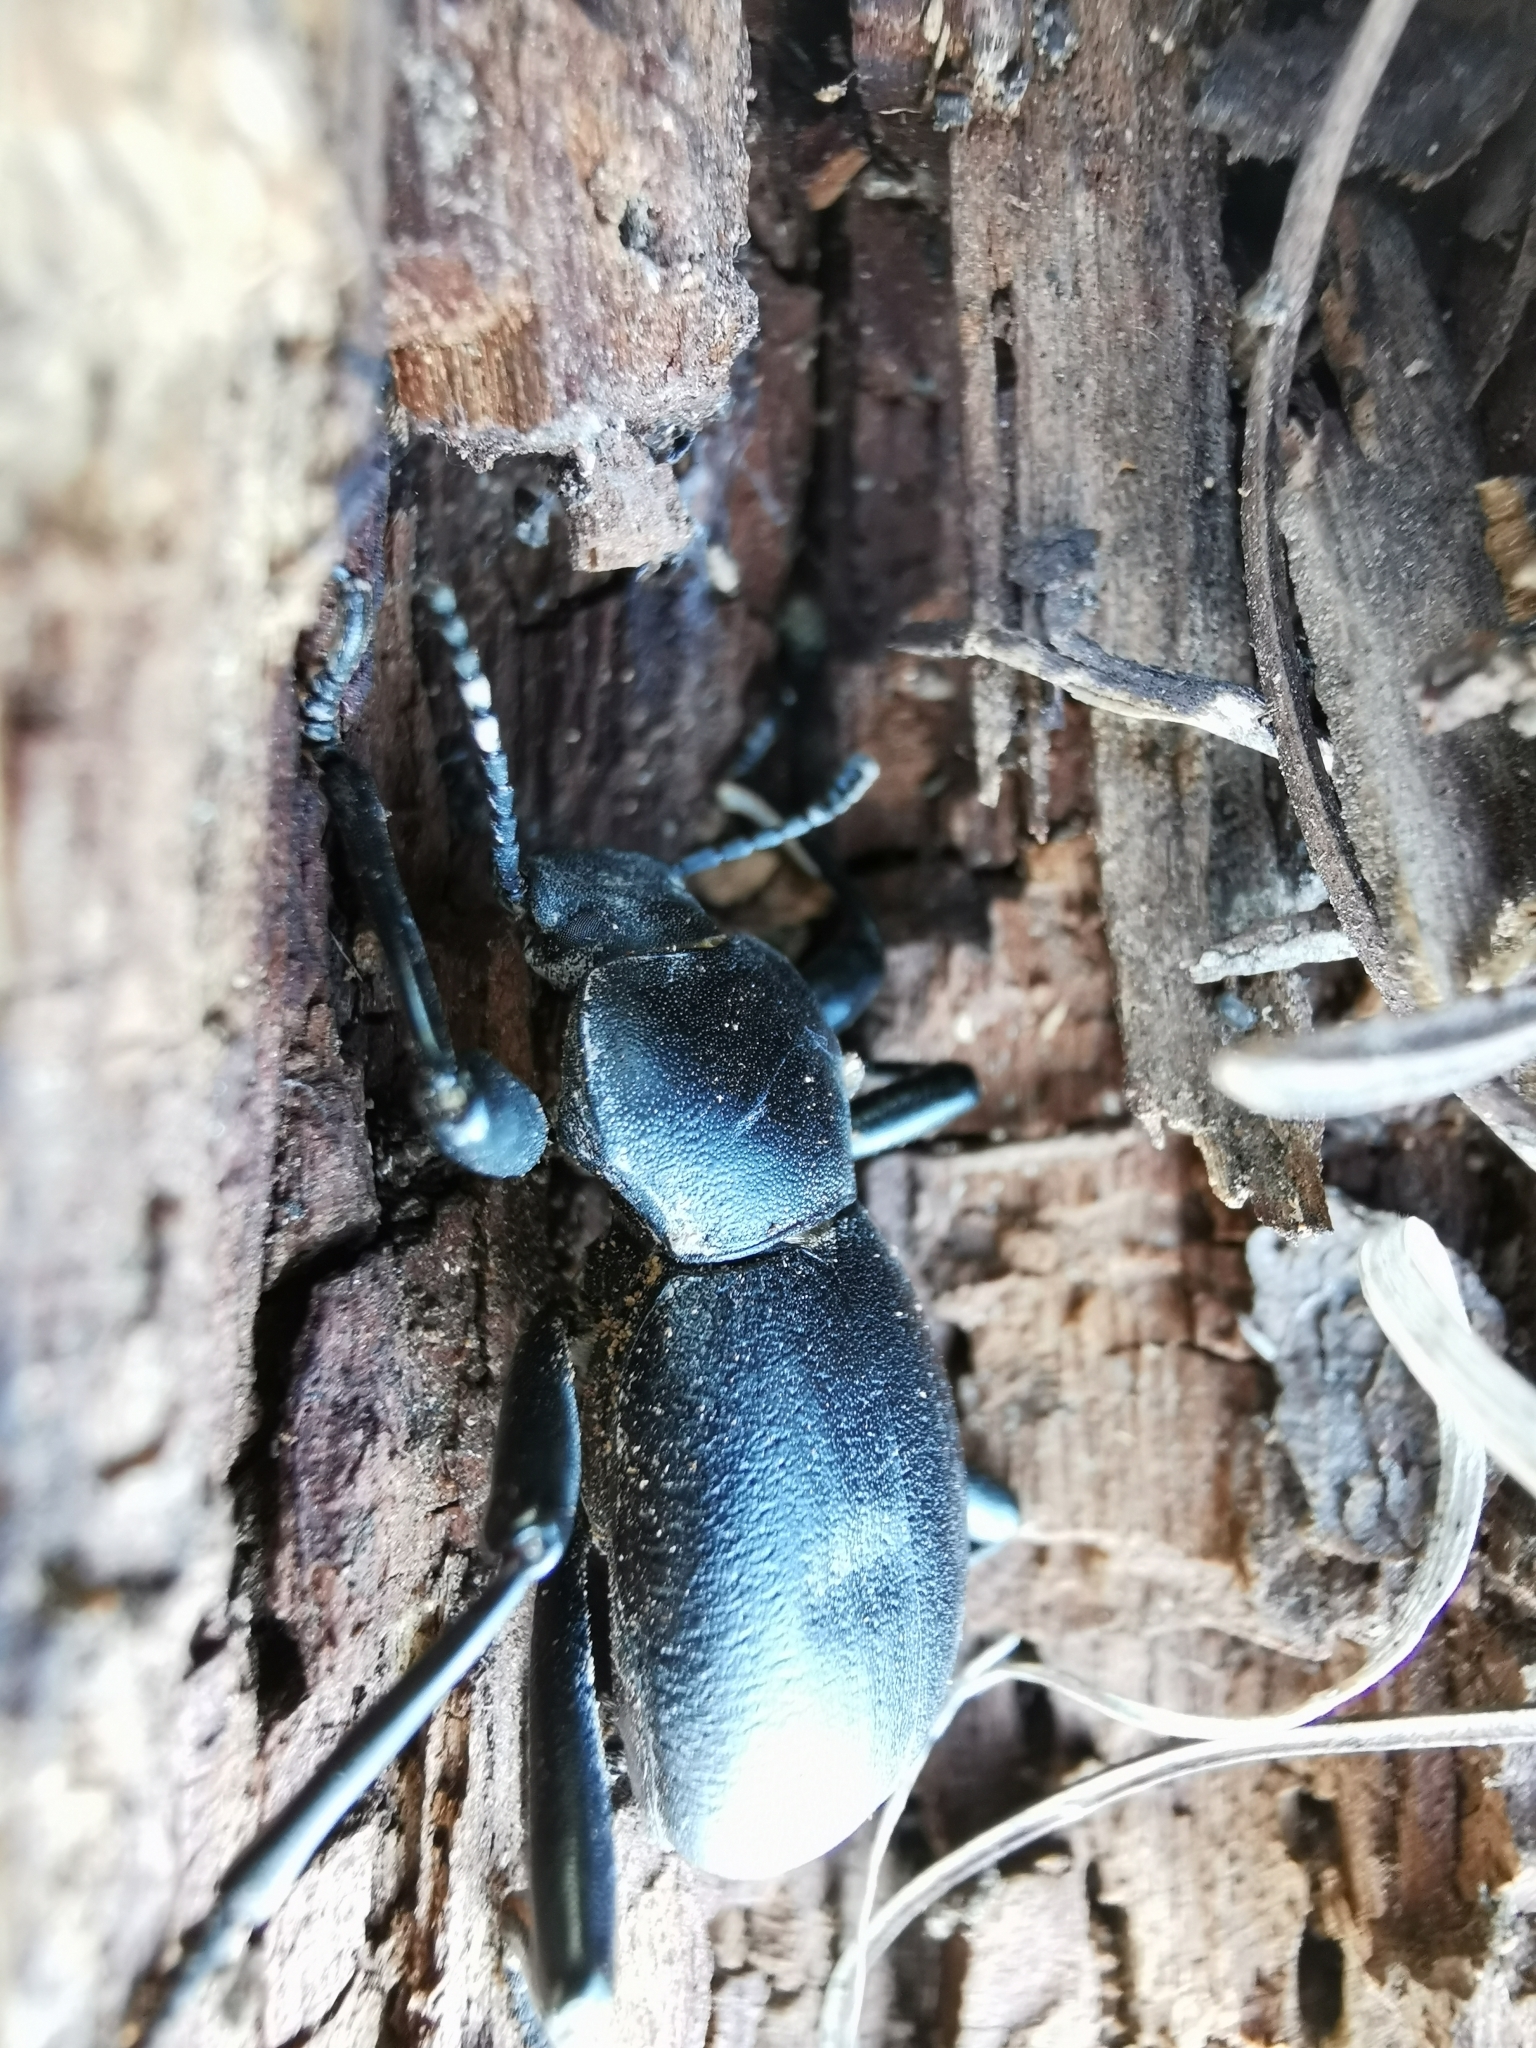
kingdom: Animalia
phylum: Arthropoda
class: Insecta
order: Coleoptera
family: Tenebrionidae
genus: Coelocnemis
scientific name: Coelocnemis dilaticollis
